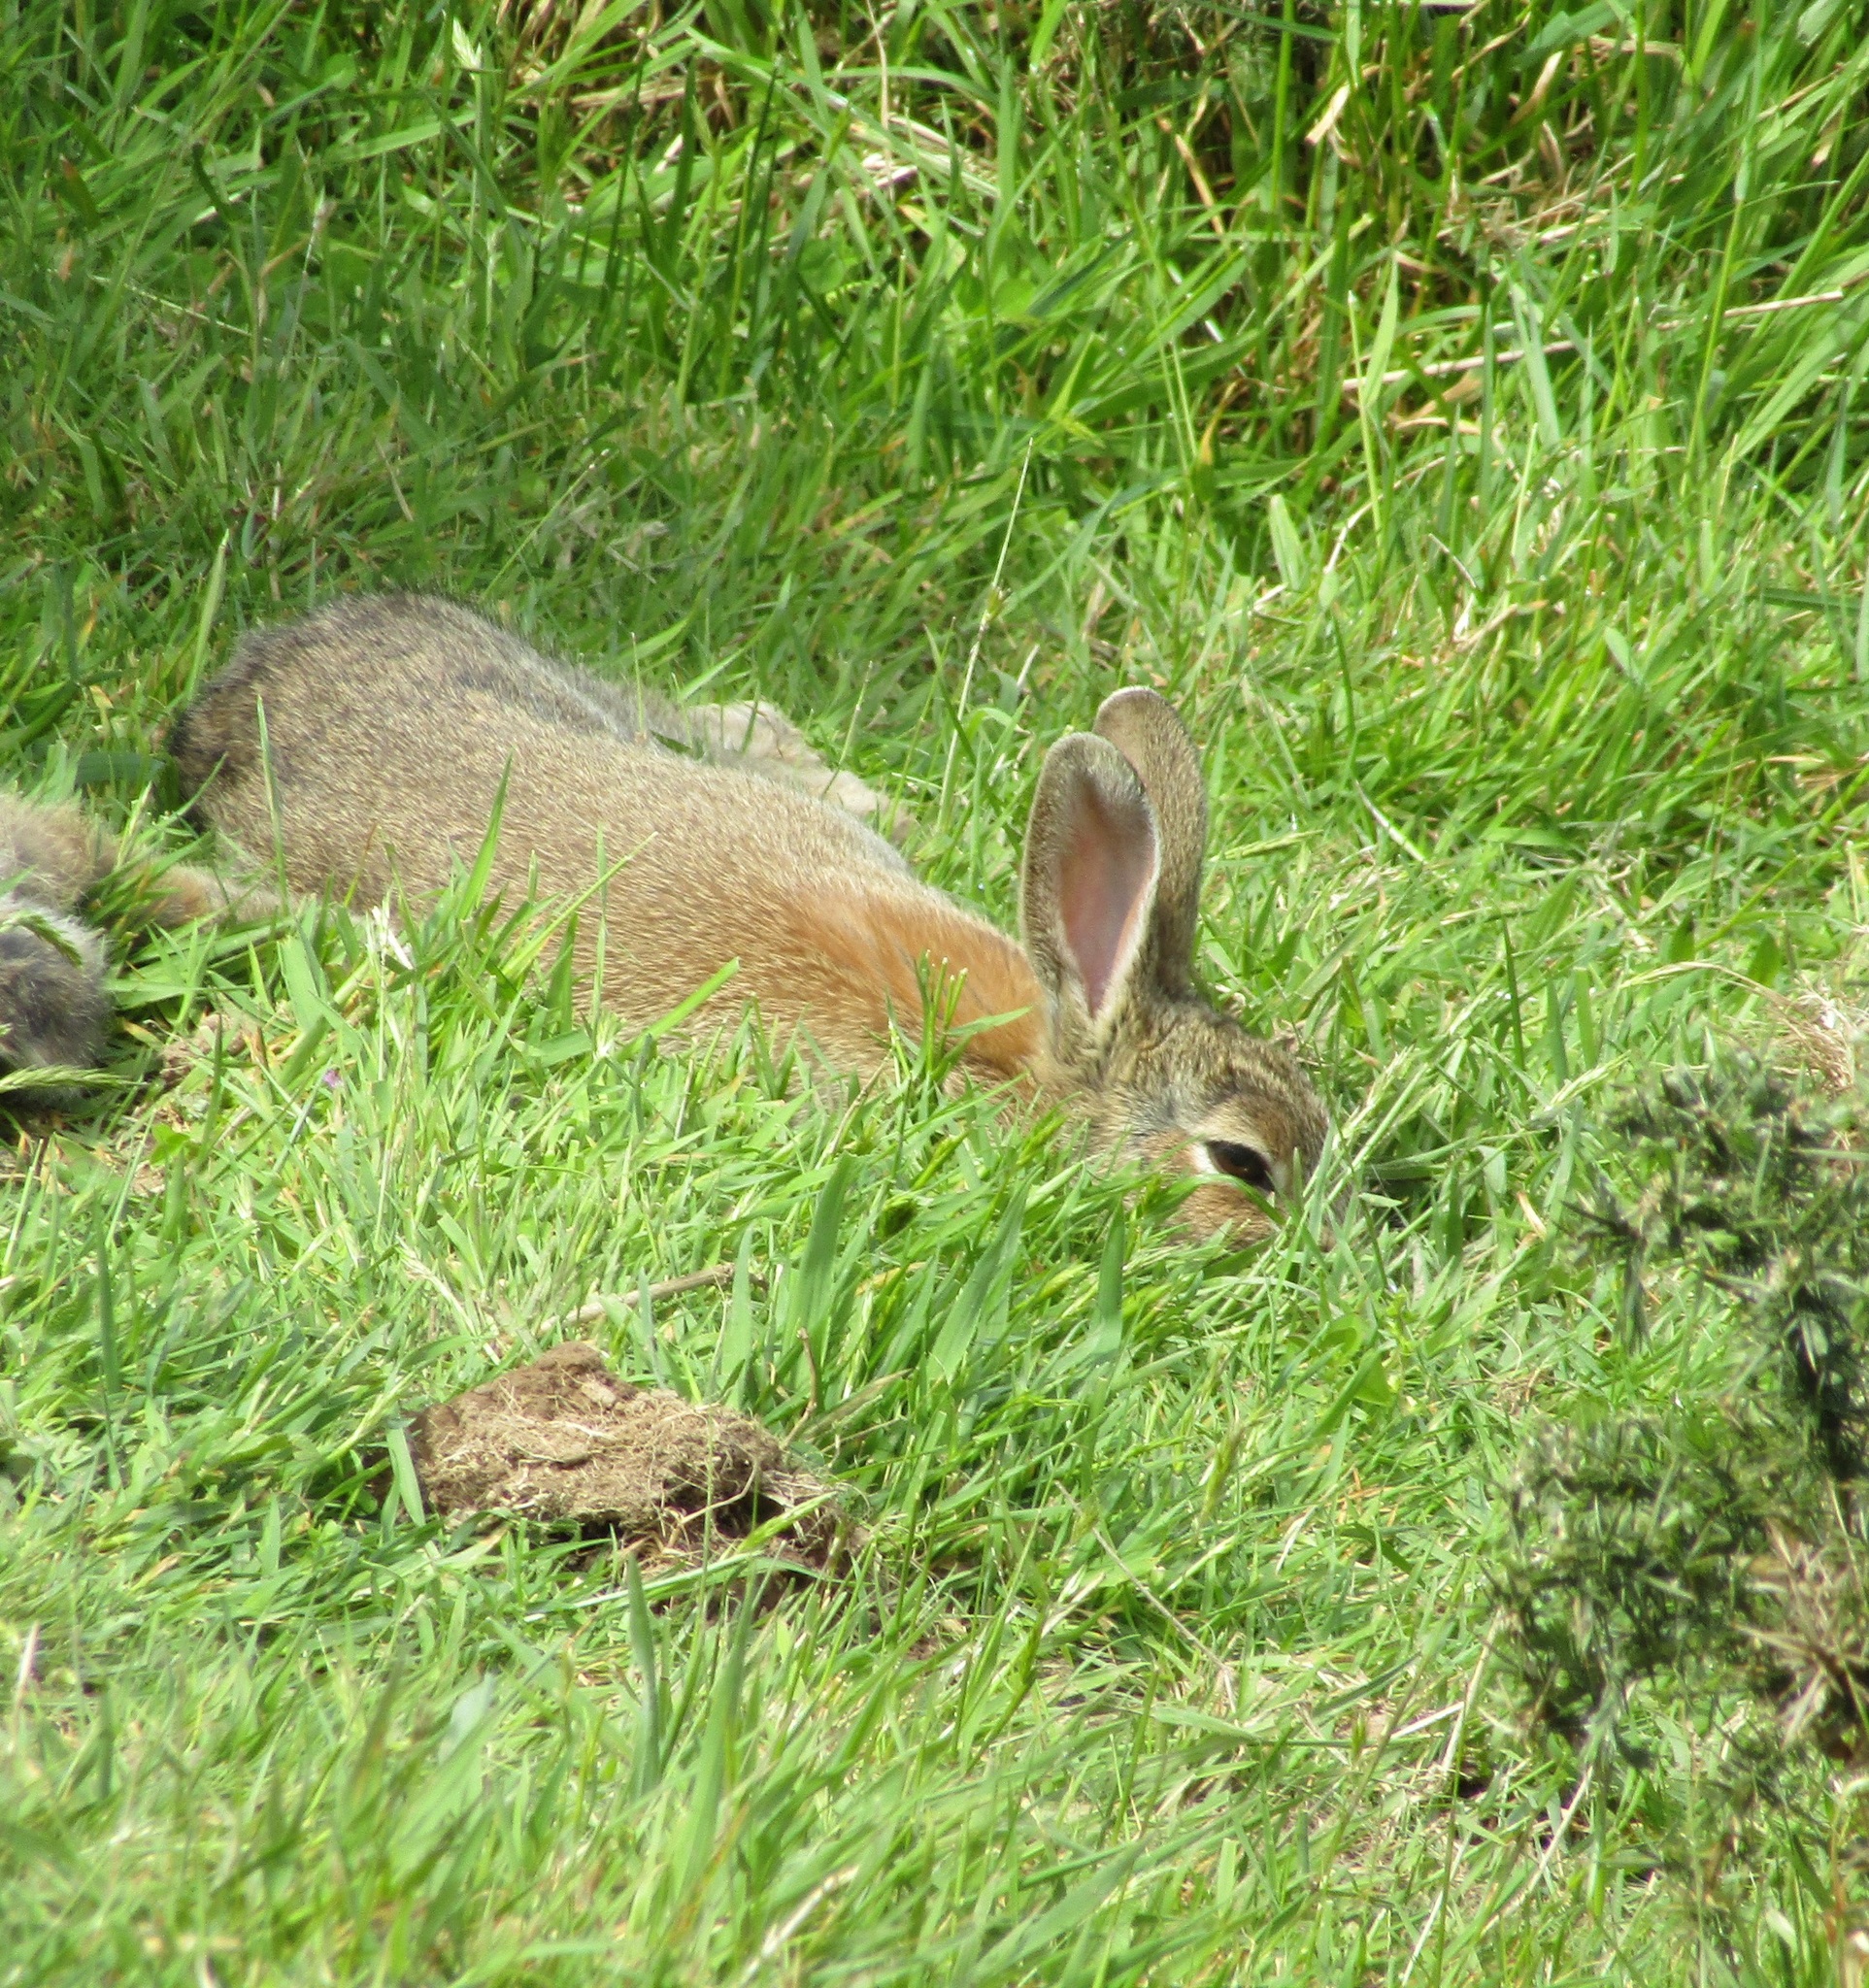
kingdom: Animalia
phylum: Chordata
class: Mammalia
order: Lagomorpha
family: Leporidae
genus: Oryctolagus
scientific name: Oryctolagus cuniculus
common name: European rabbit
